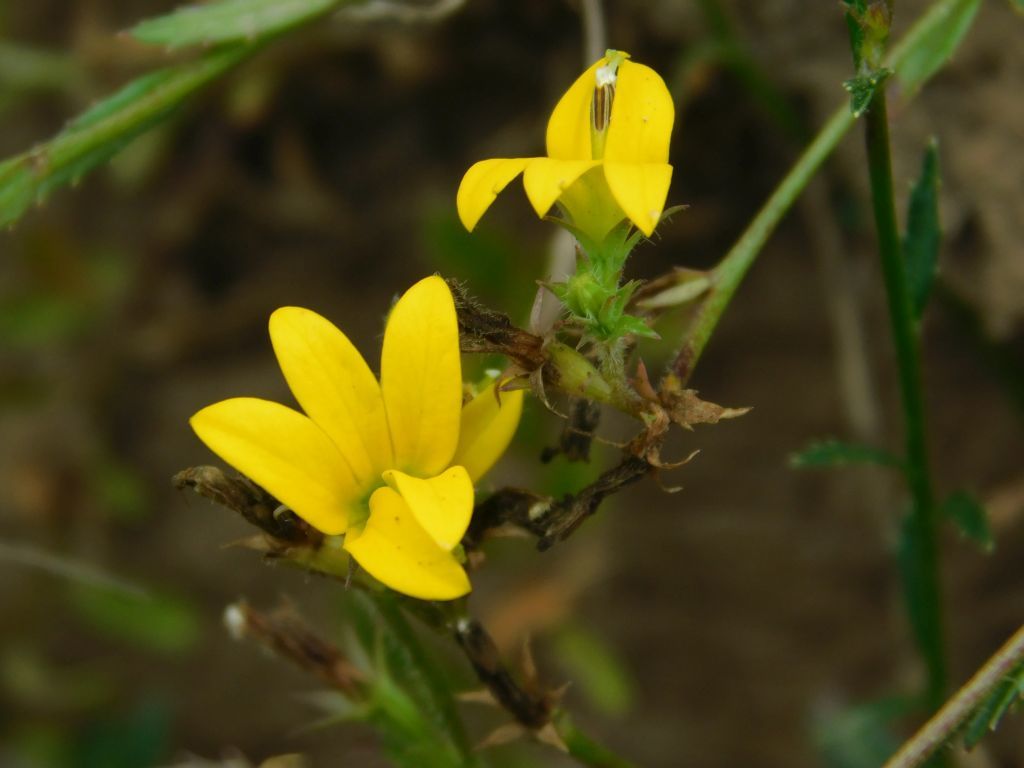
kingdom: Plantae
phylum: Tracheophyta
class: Magnoliopsida
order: Asterales
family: Campanulaceae
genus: Monopsis
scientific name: Monopsis lutea
